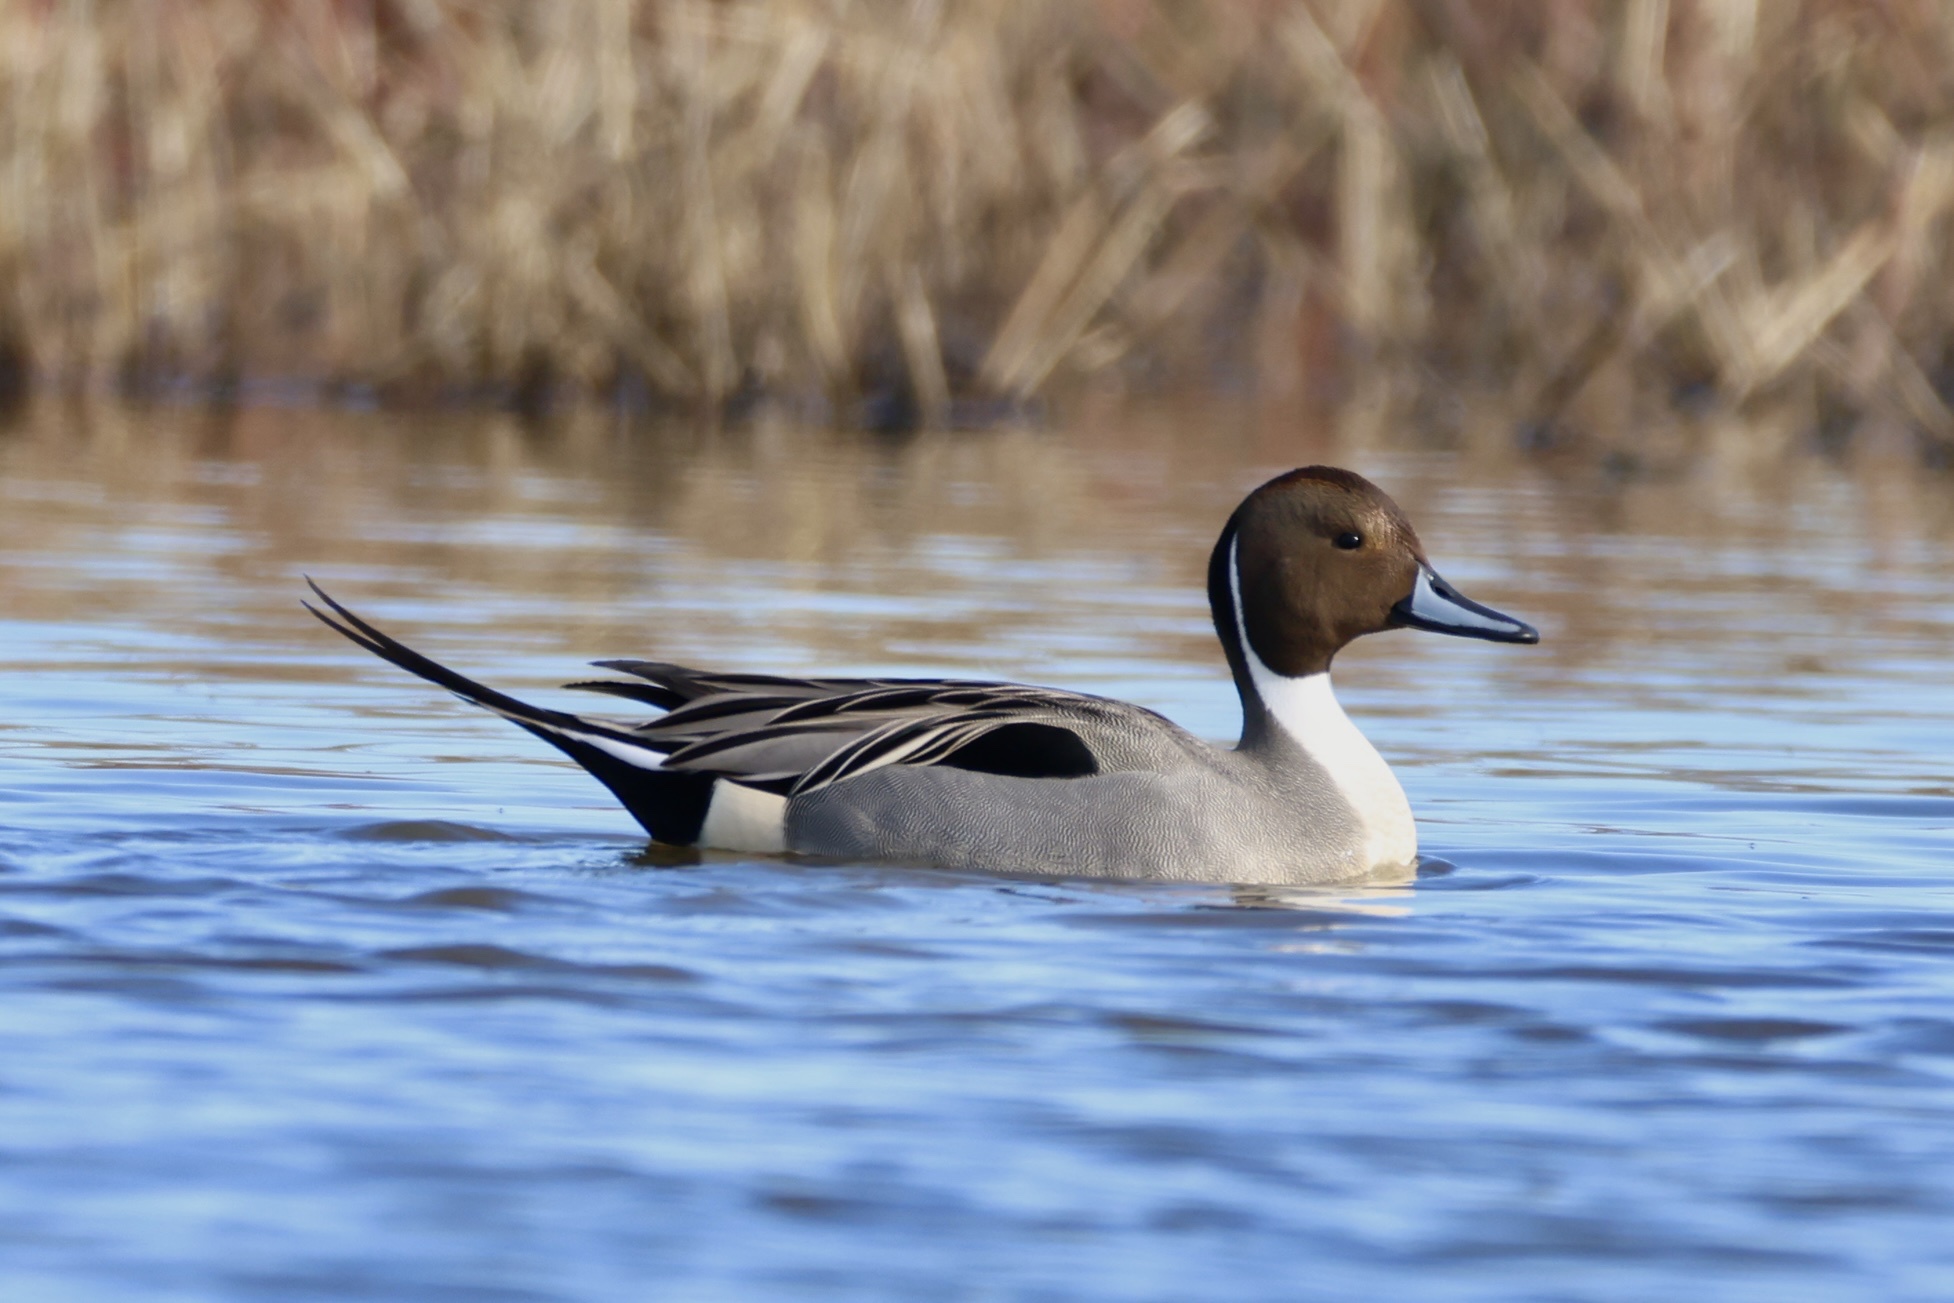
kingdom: Animalia
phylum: Chordata
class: Aves
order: Anseriformes
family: Anatidae
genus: Anas
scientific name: Anas acuta
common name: Northern pintail
